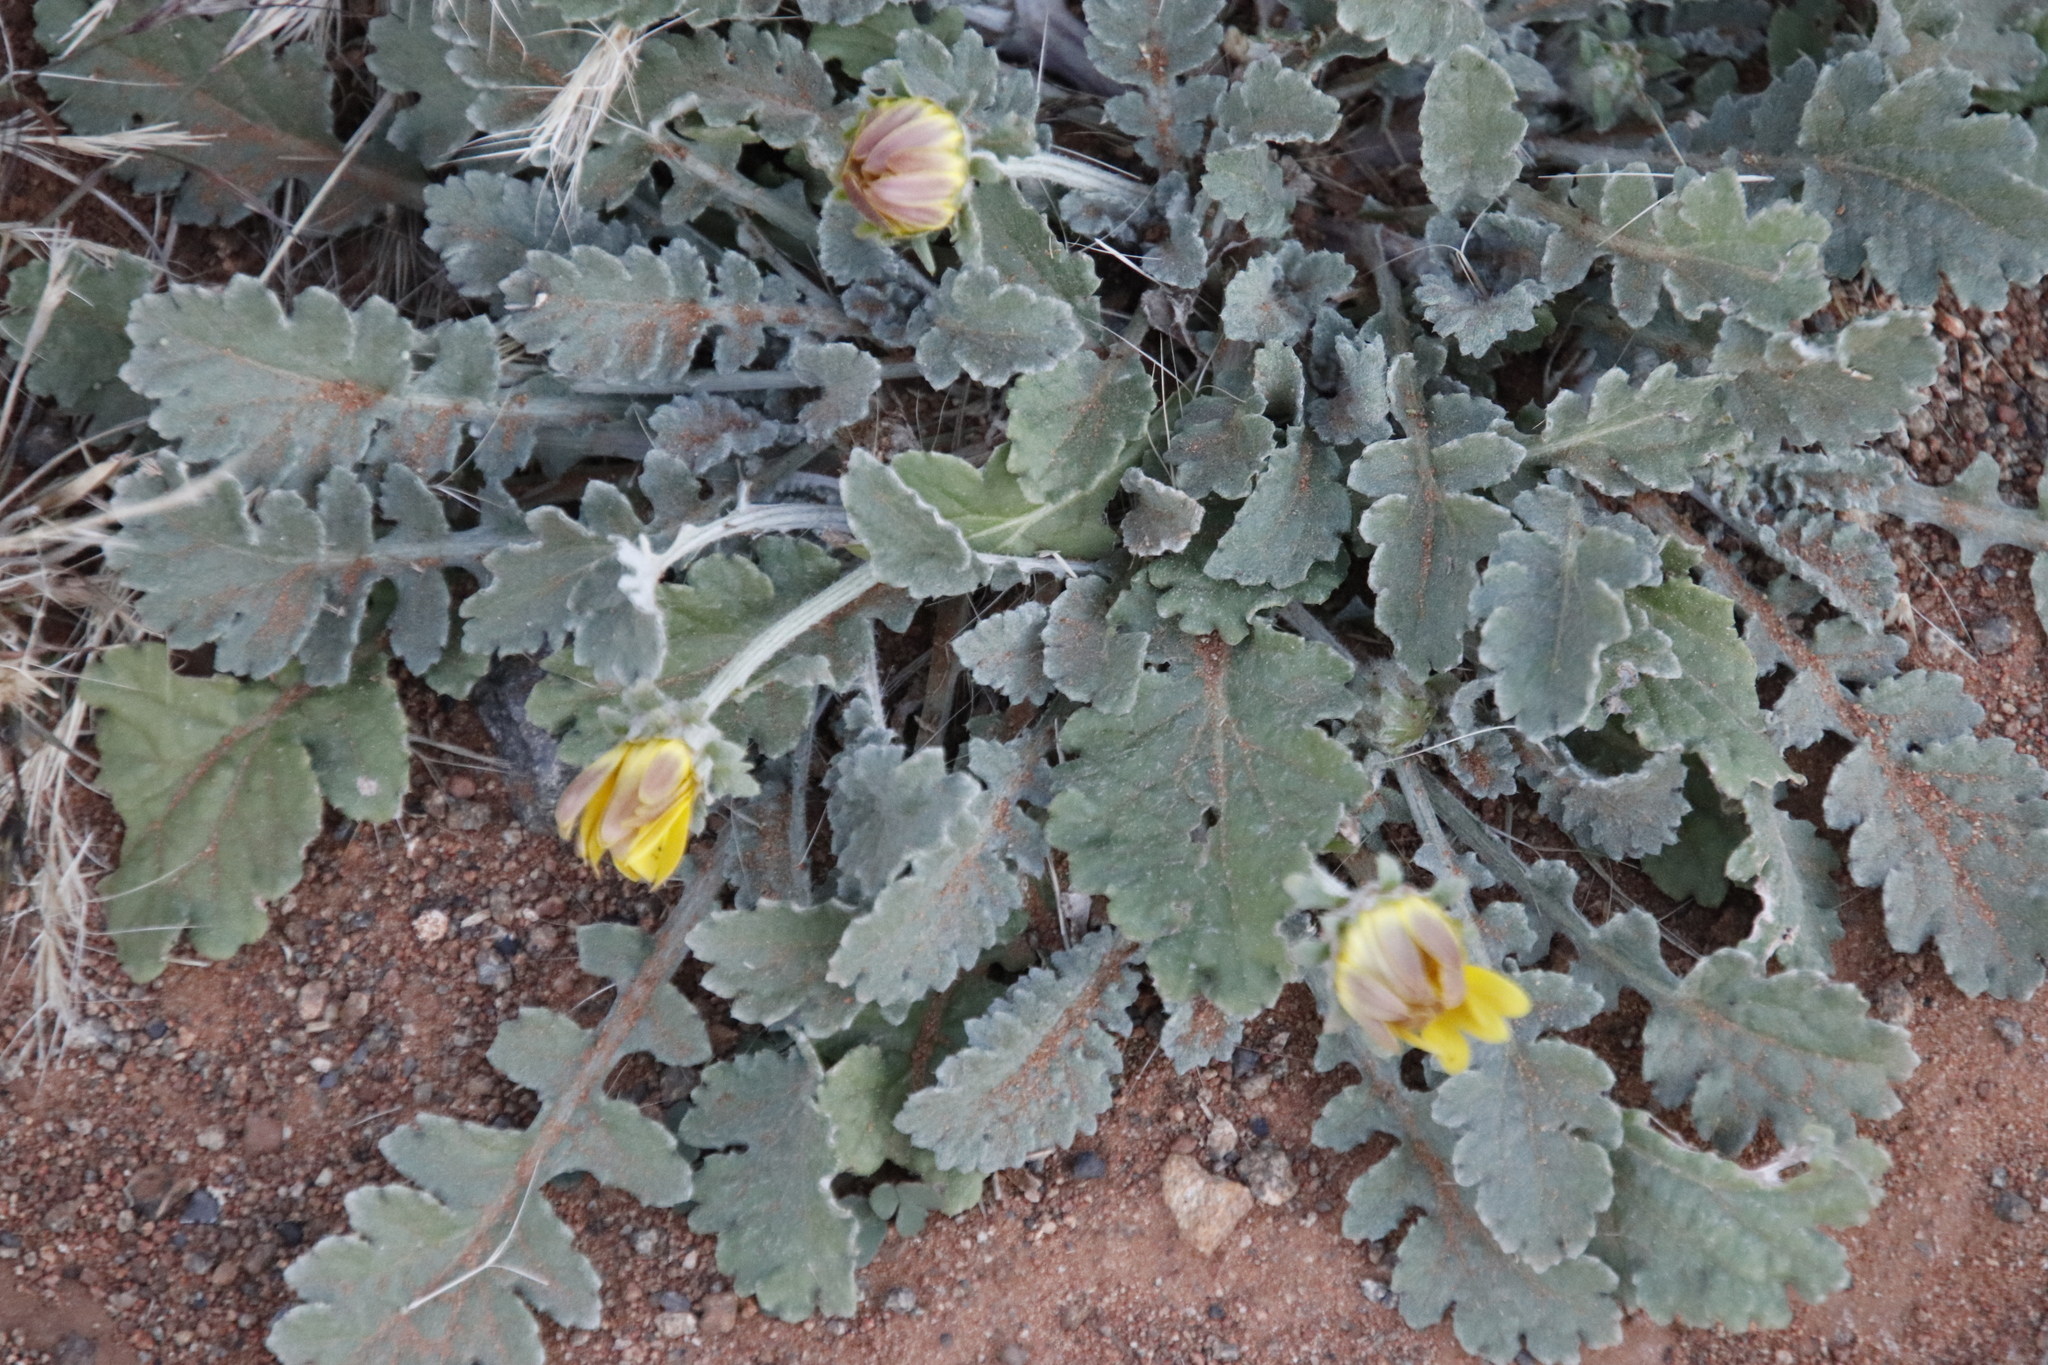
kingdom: Plantae
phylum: Tracheophyta
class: Magnoliopsida
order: Asterales
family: Asteraceae
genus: Arctotis
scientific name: Arctotis arctotoides
